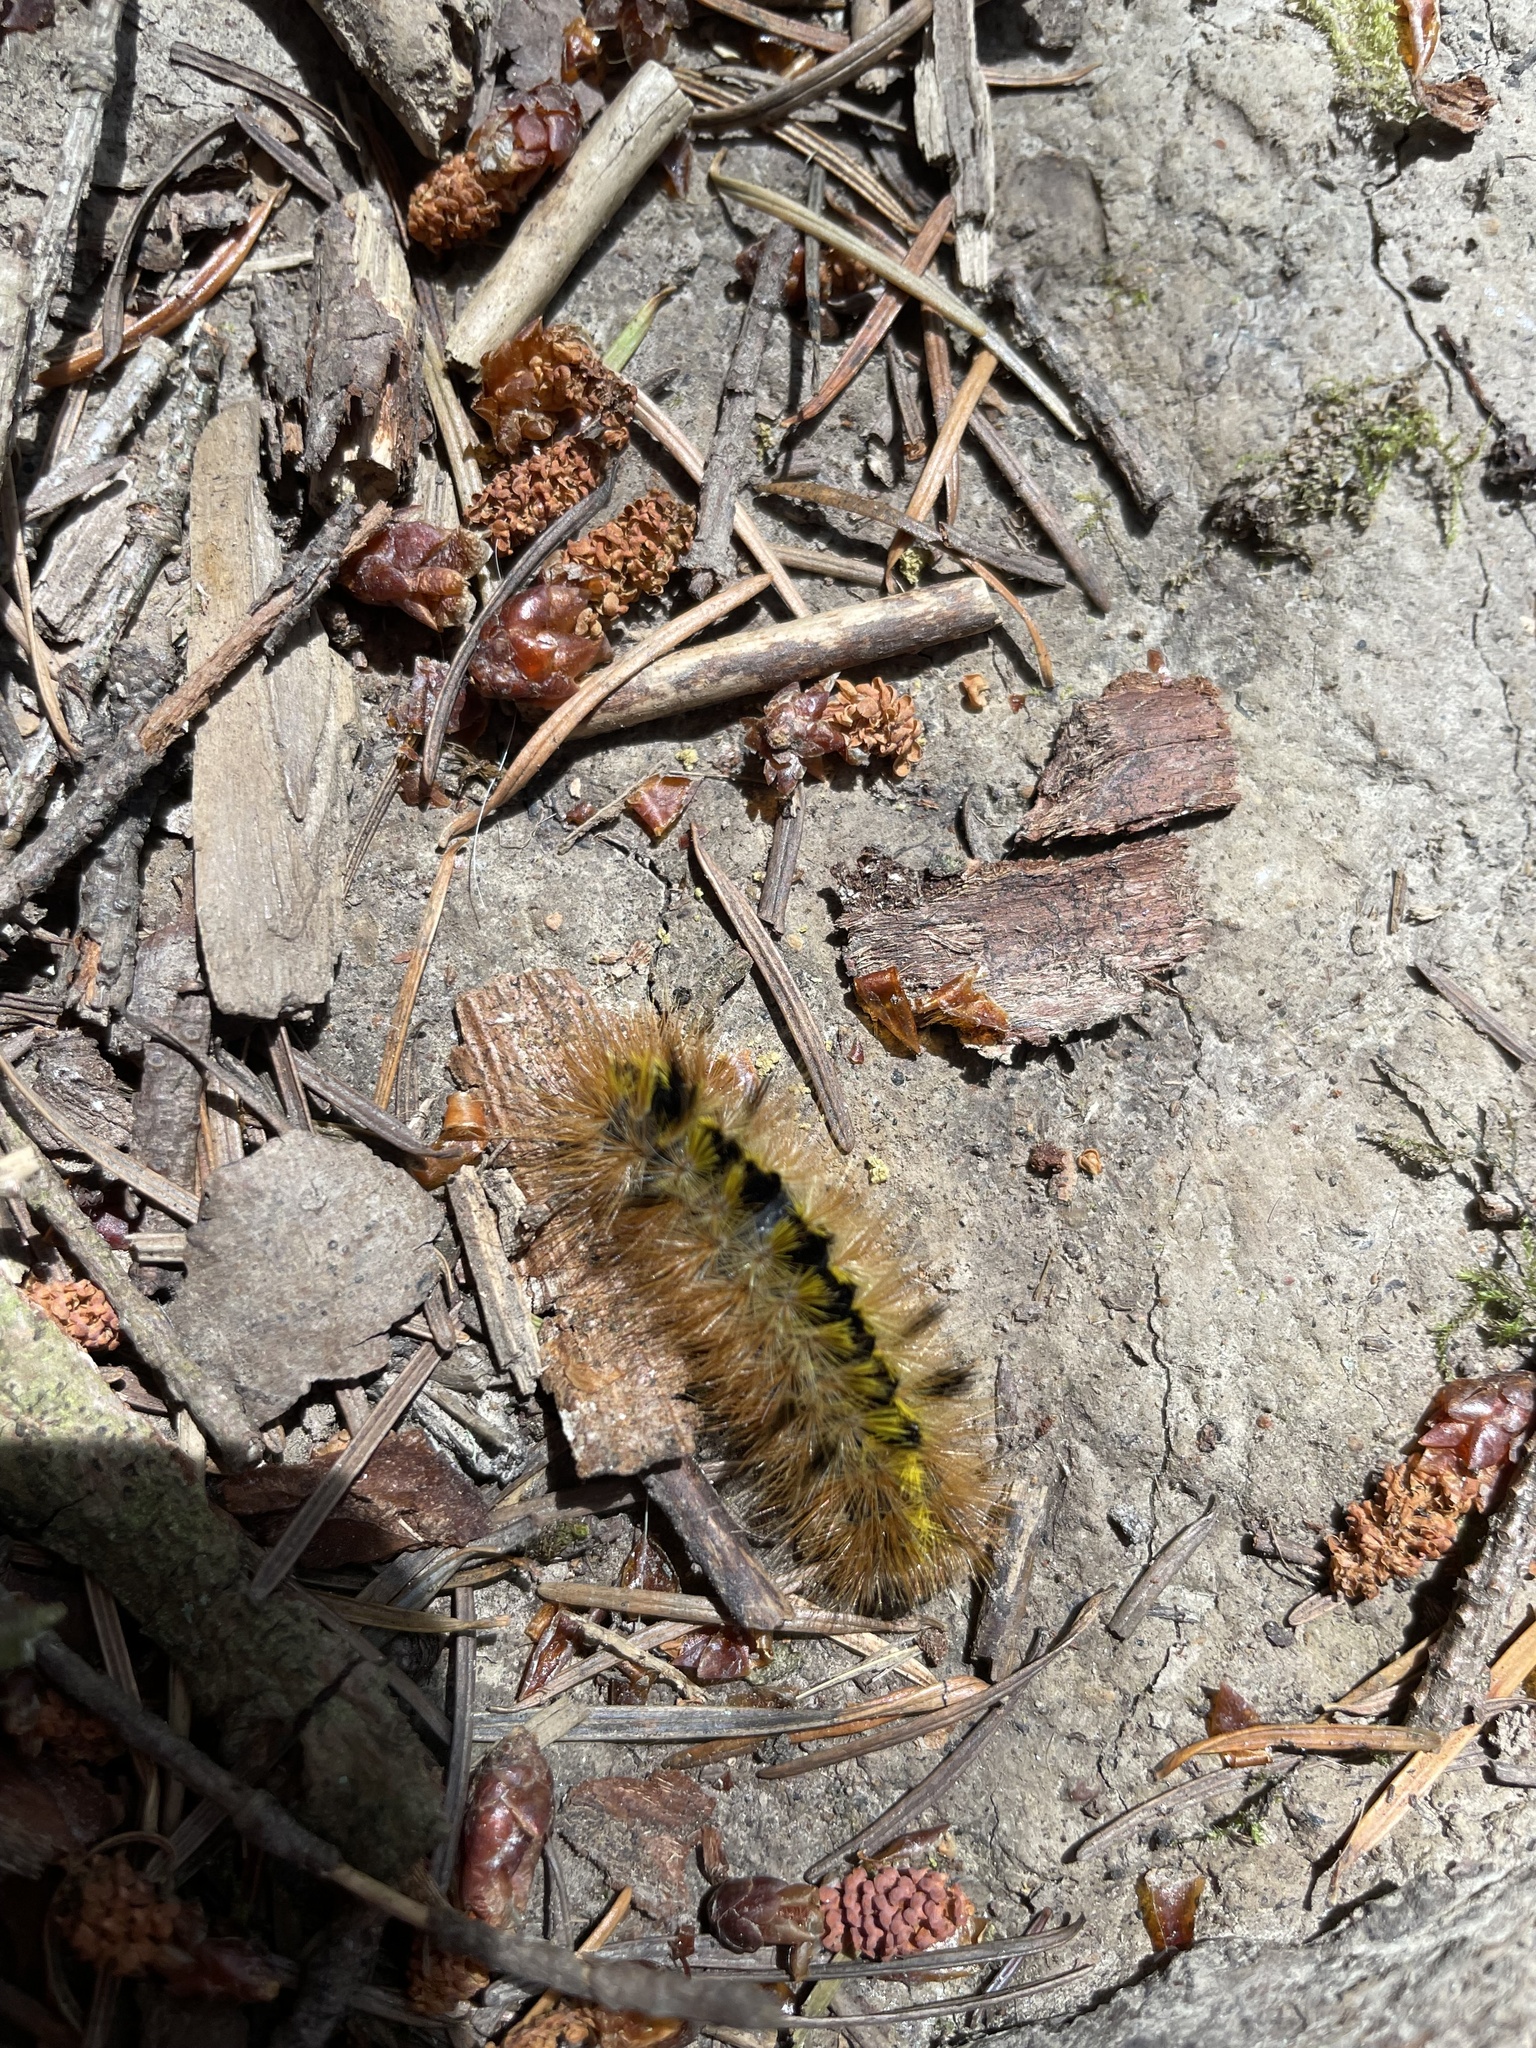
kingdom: Animalia
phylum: Arthropoda
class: Insecta
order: Lepidoptera
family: Erebidae
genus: Lophocampa
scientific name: Lophocampa argentata
